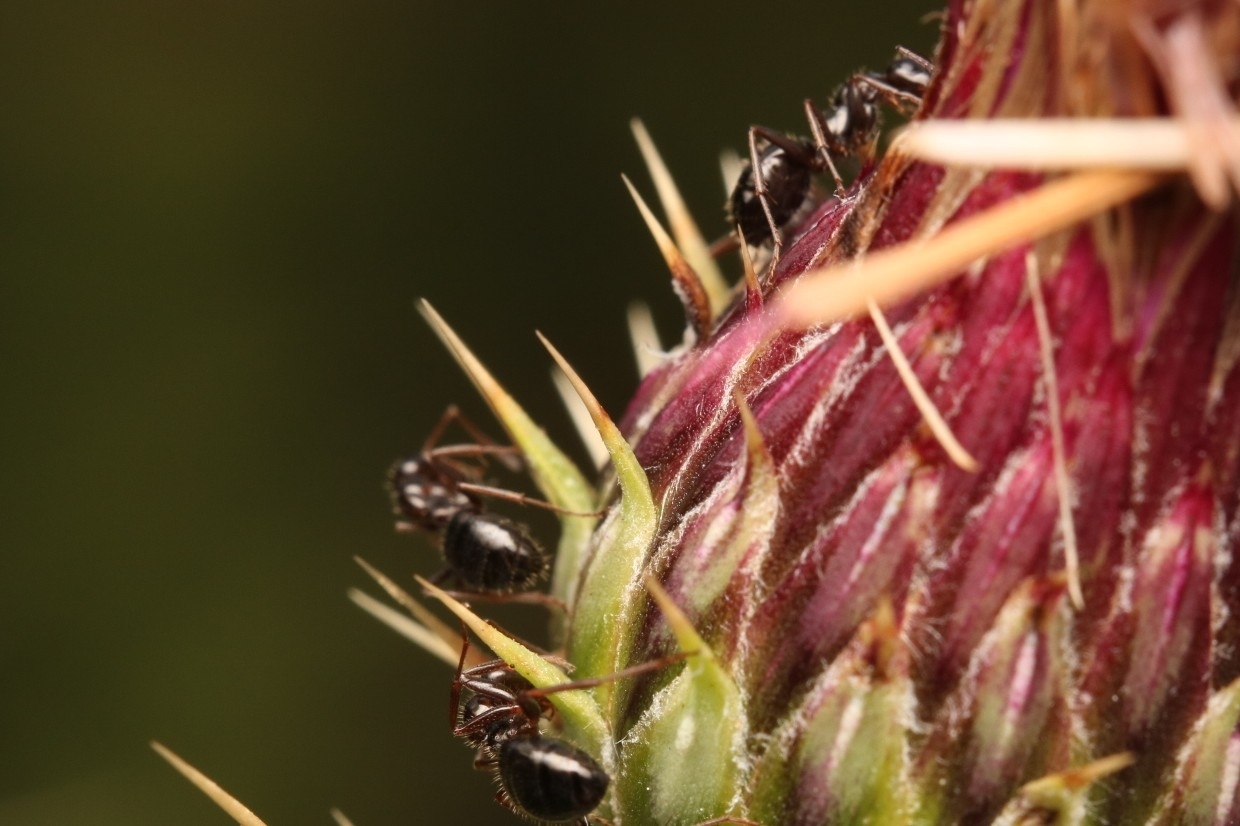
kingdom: Animalia
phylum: Arthropoda
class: Insecta
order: Hymenoptera
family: Formicidae
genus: Formica
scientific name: Formica lasioides
